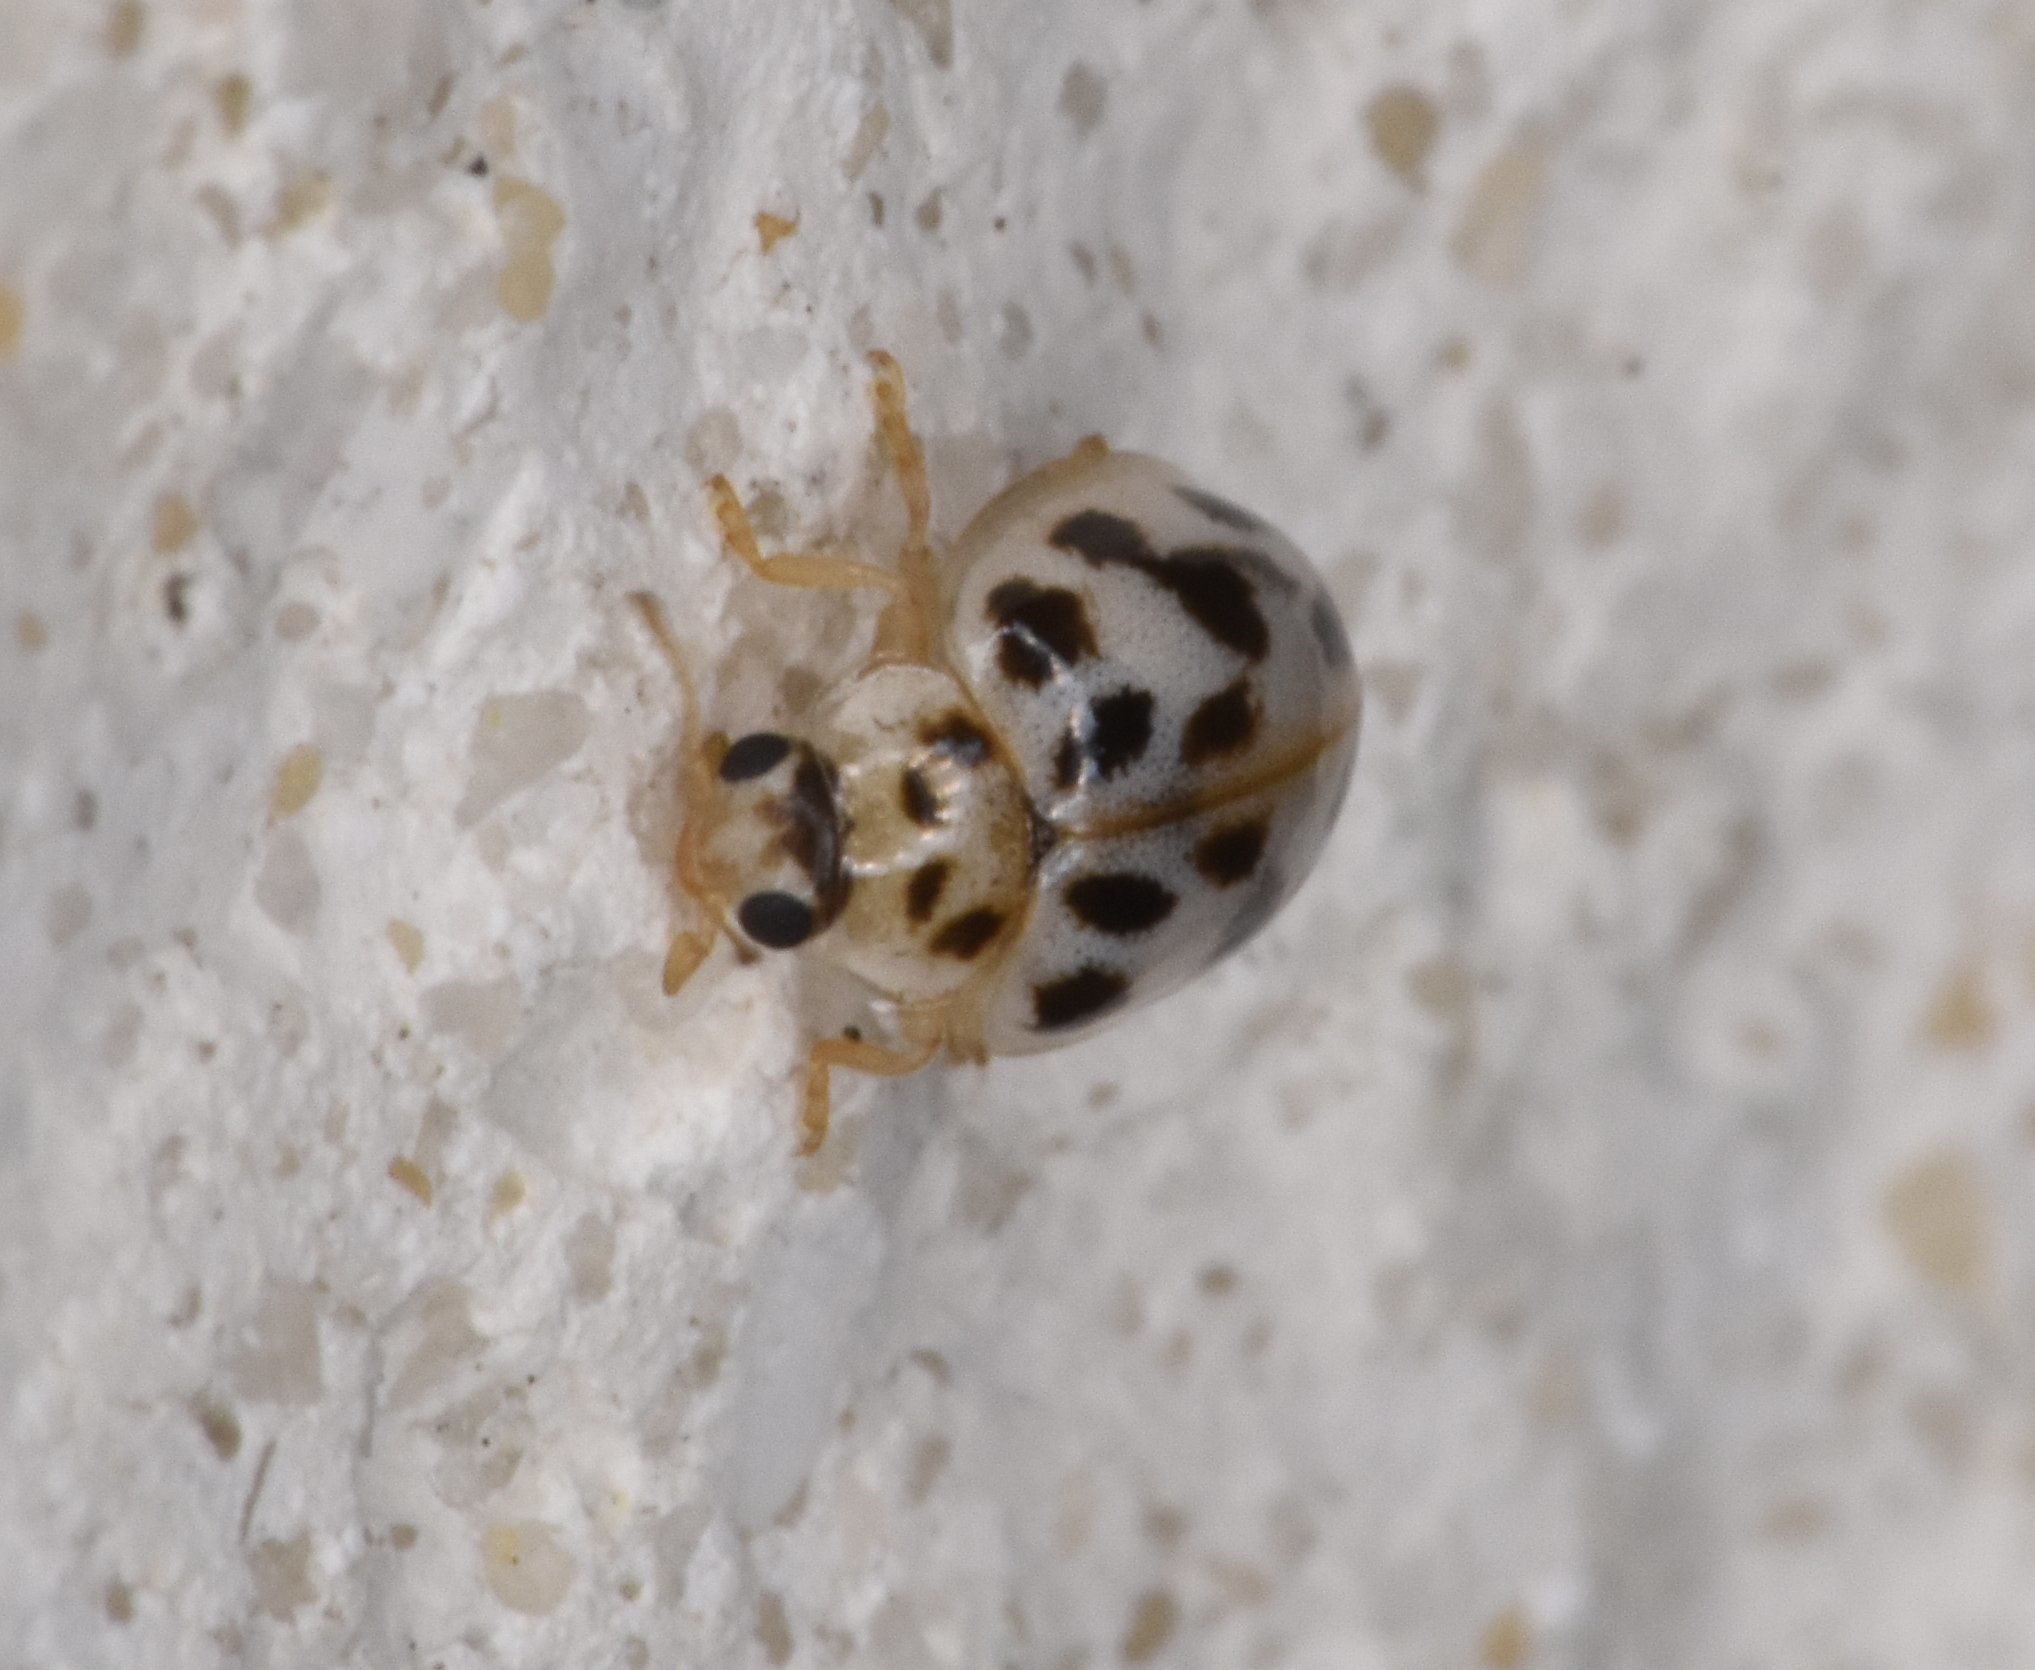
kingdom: Animalia
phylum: Arthropoda
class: Insecta
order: Coleoptera
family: Coccinellidae
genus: Psyllobora
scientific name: Psyllobora parvinotata
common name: Small-spotted psyllobora
